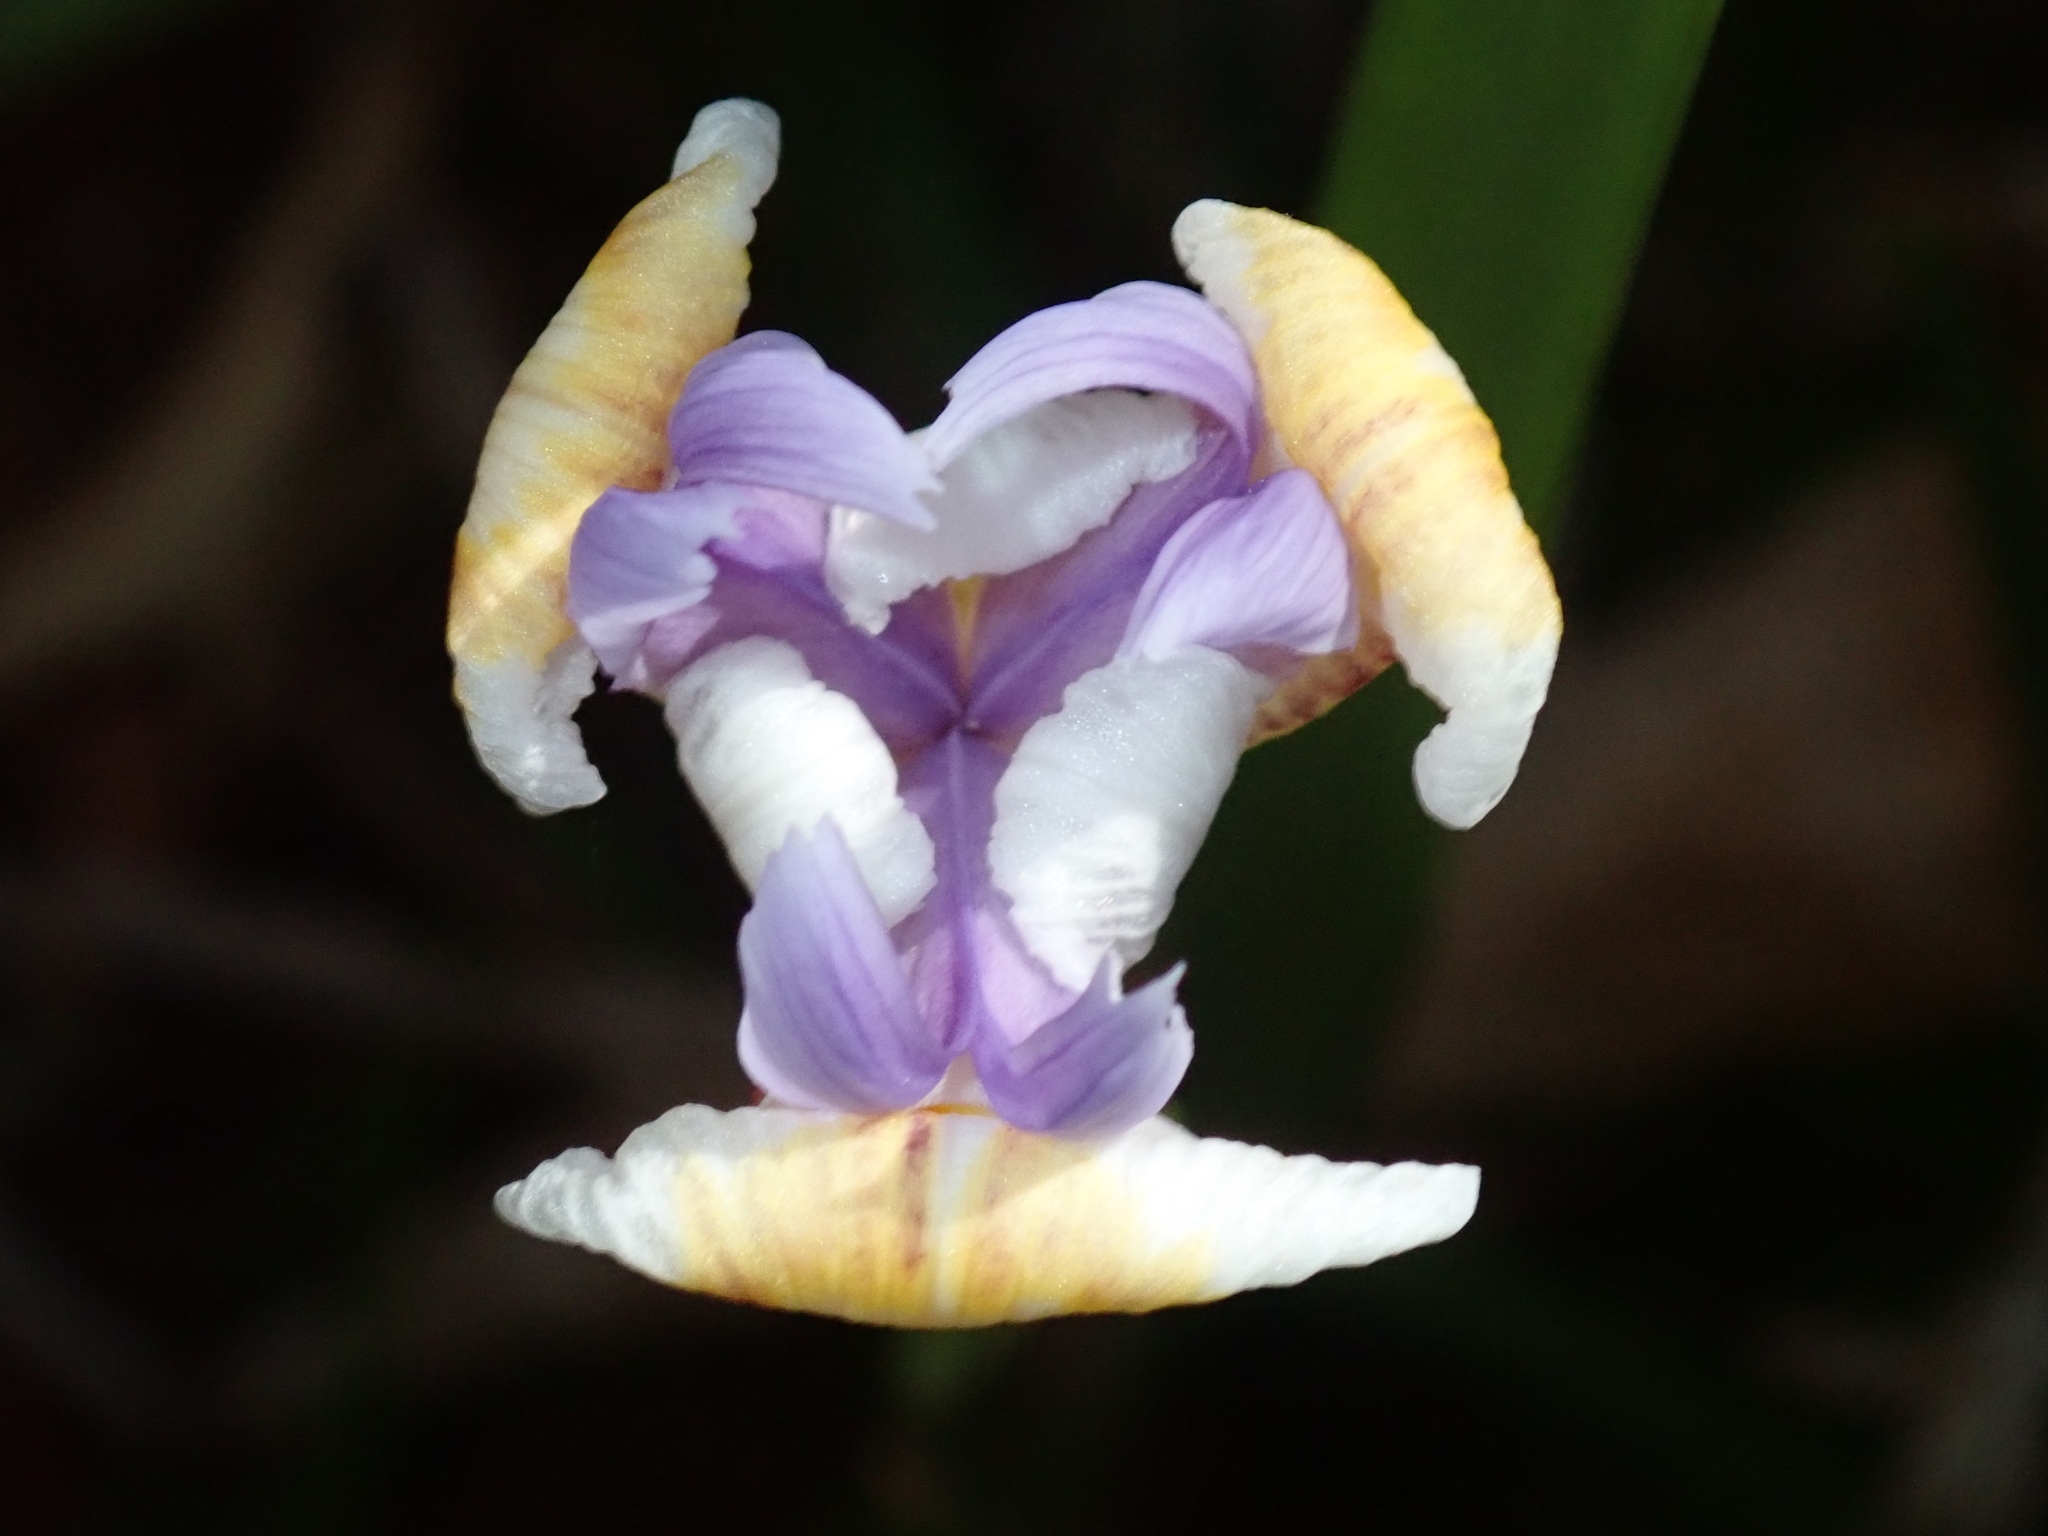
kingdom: Plantae
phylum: Tracheophyta
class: Liliopsida
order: Asparagales
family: Iridaceae
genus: Dietes
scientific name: Dietes grandiflora
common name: Wild iris
